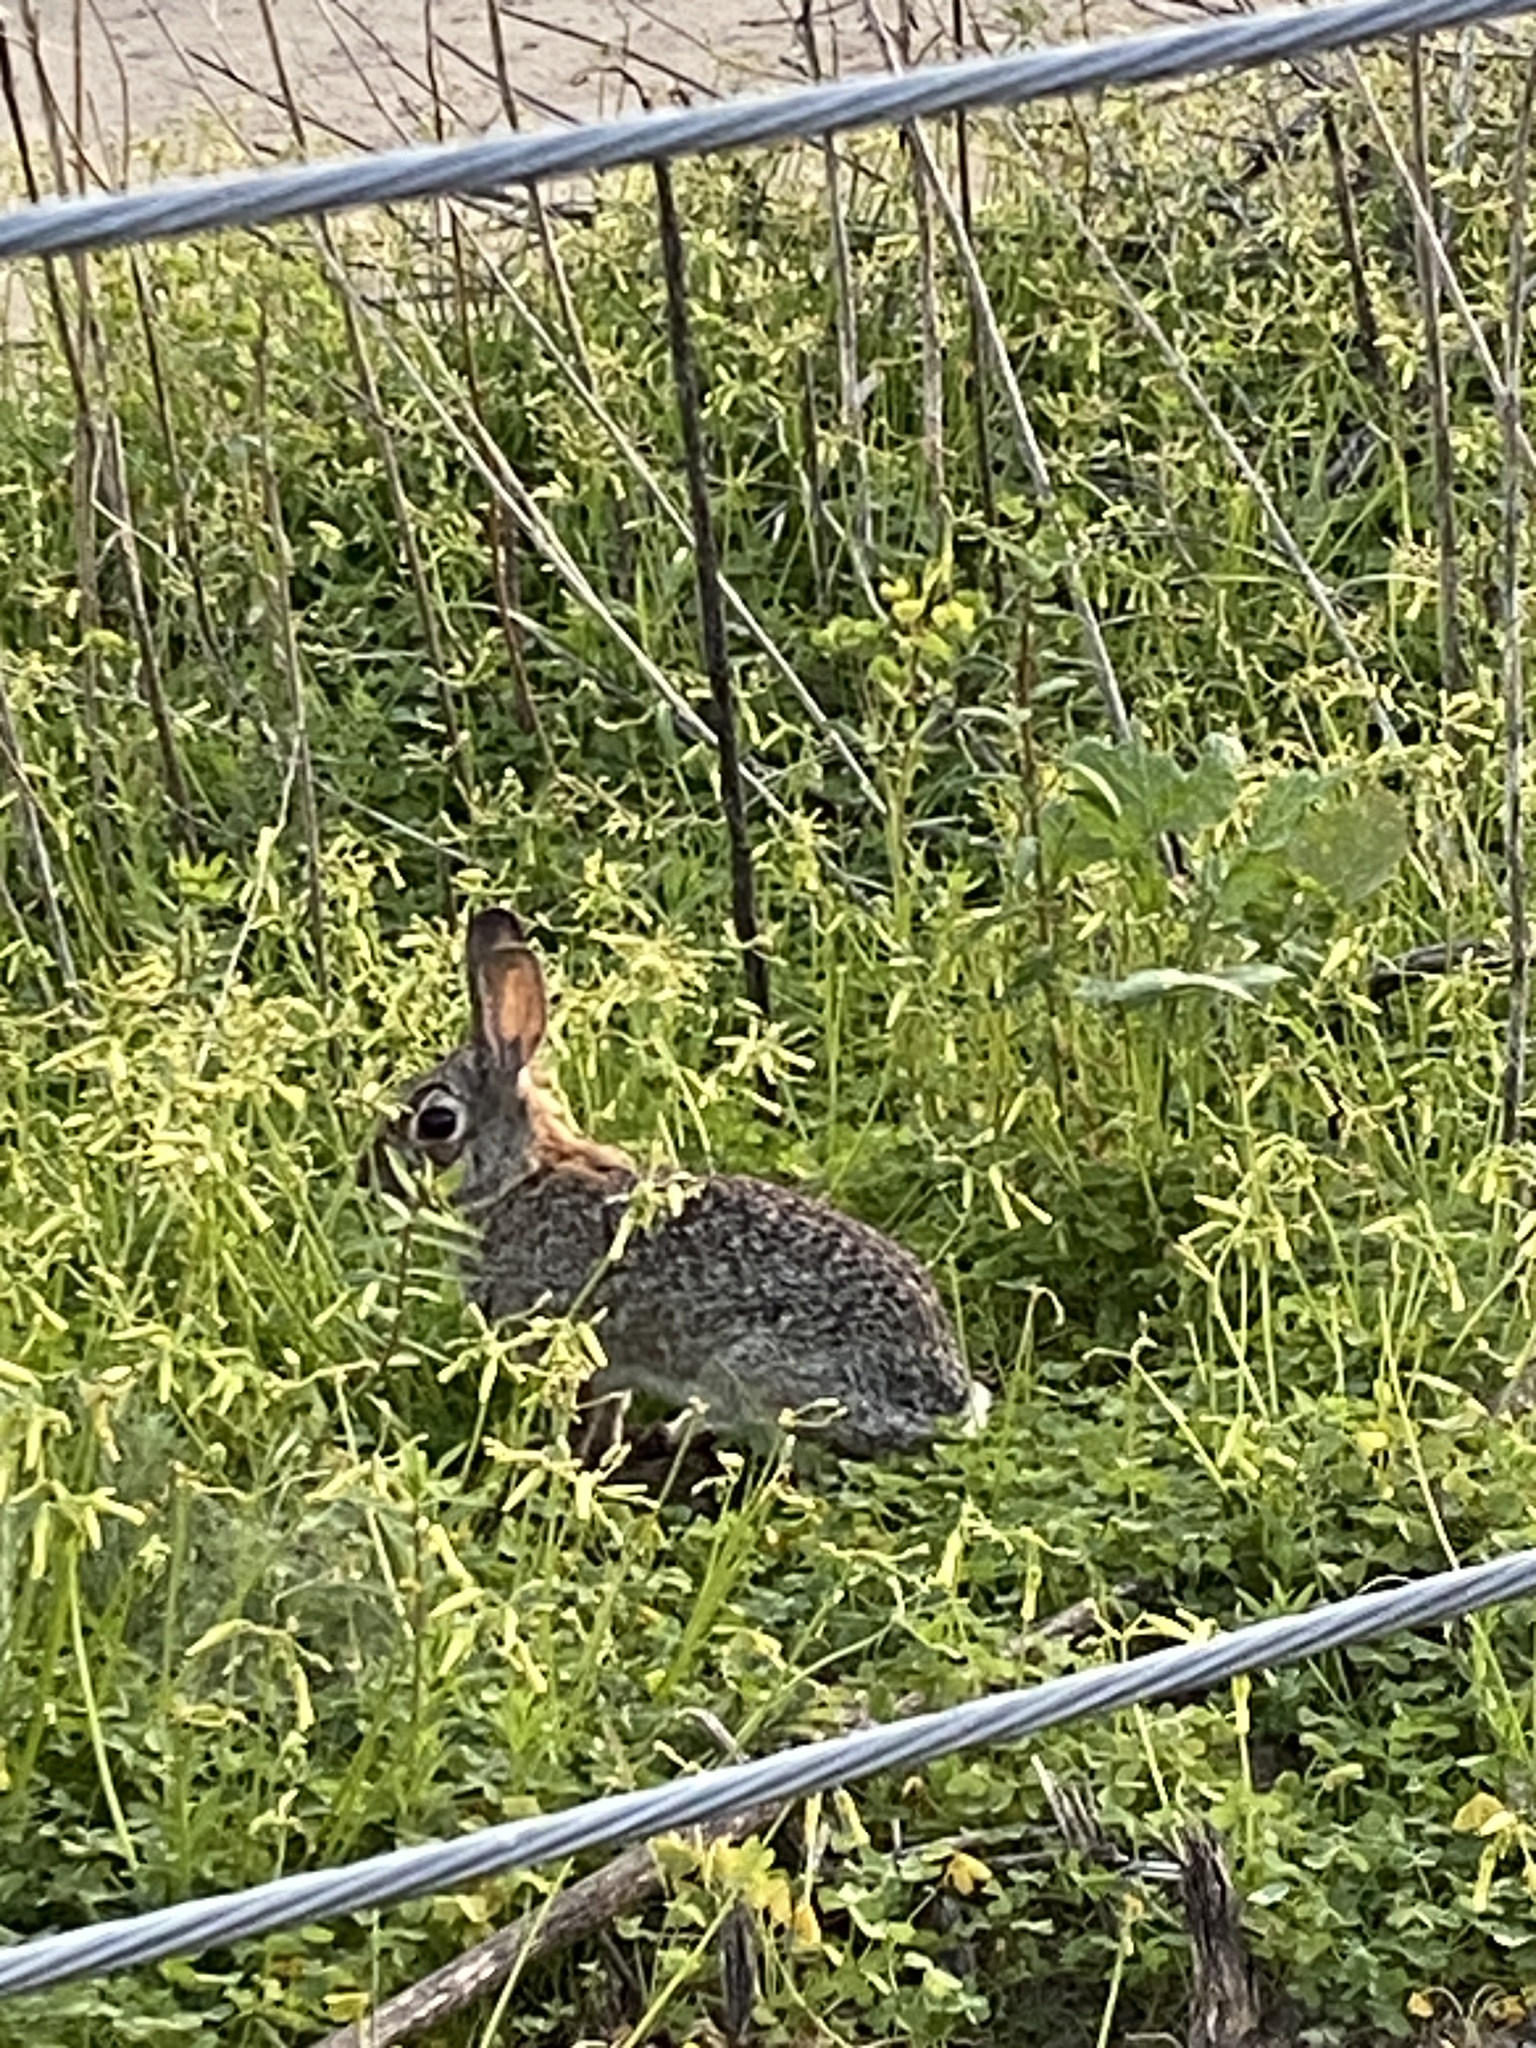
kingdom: Animalia
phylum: Chordata
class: Mammalia
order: Lagomorpha
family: Leporidae
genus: Sylvilagus
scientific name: Sylvilagus audubonii
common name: Desert cottontail
